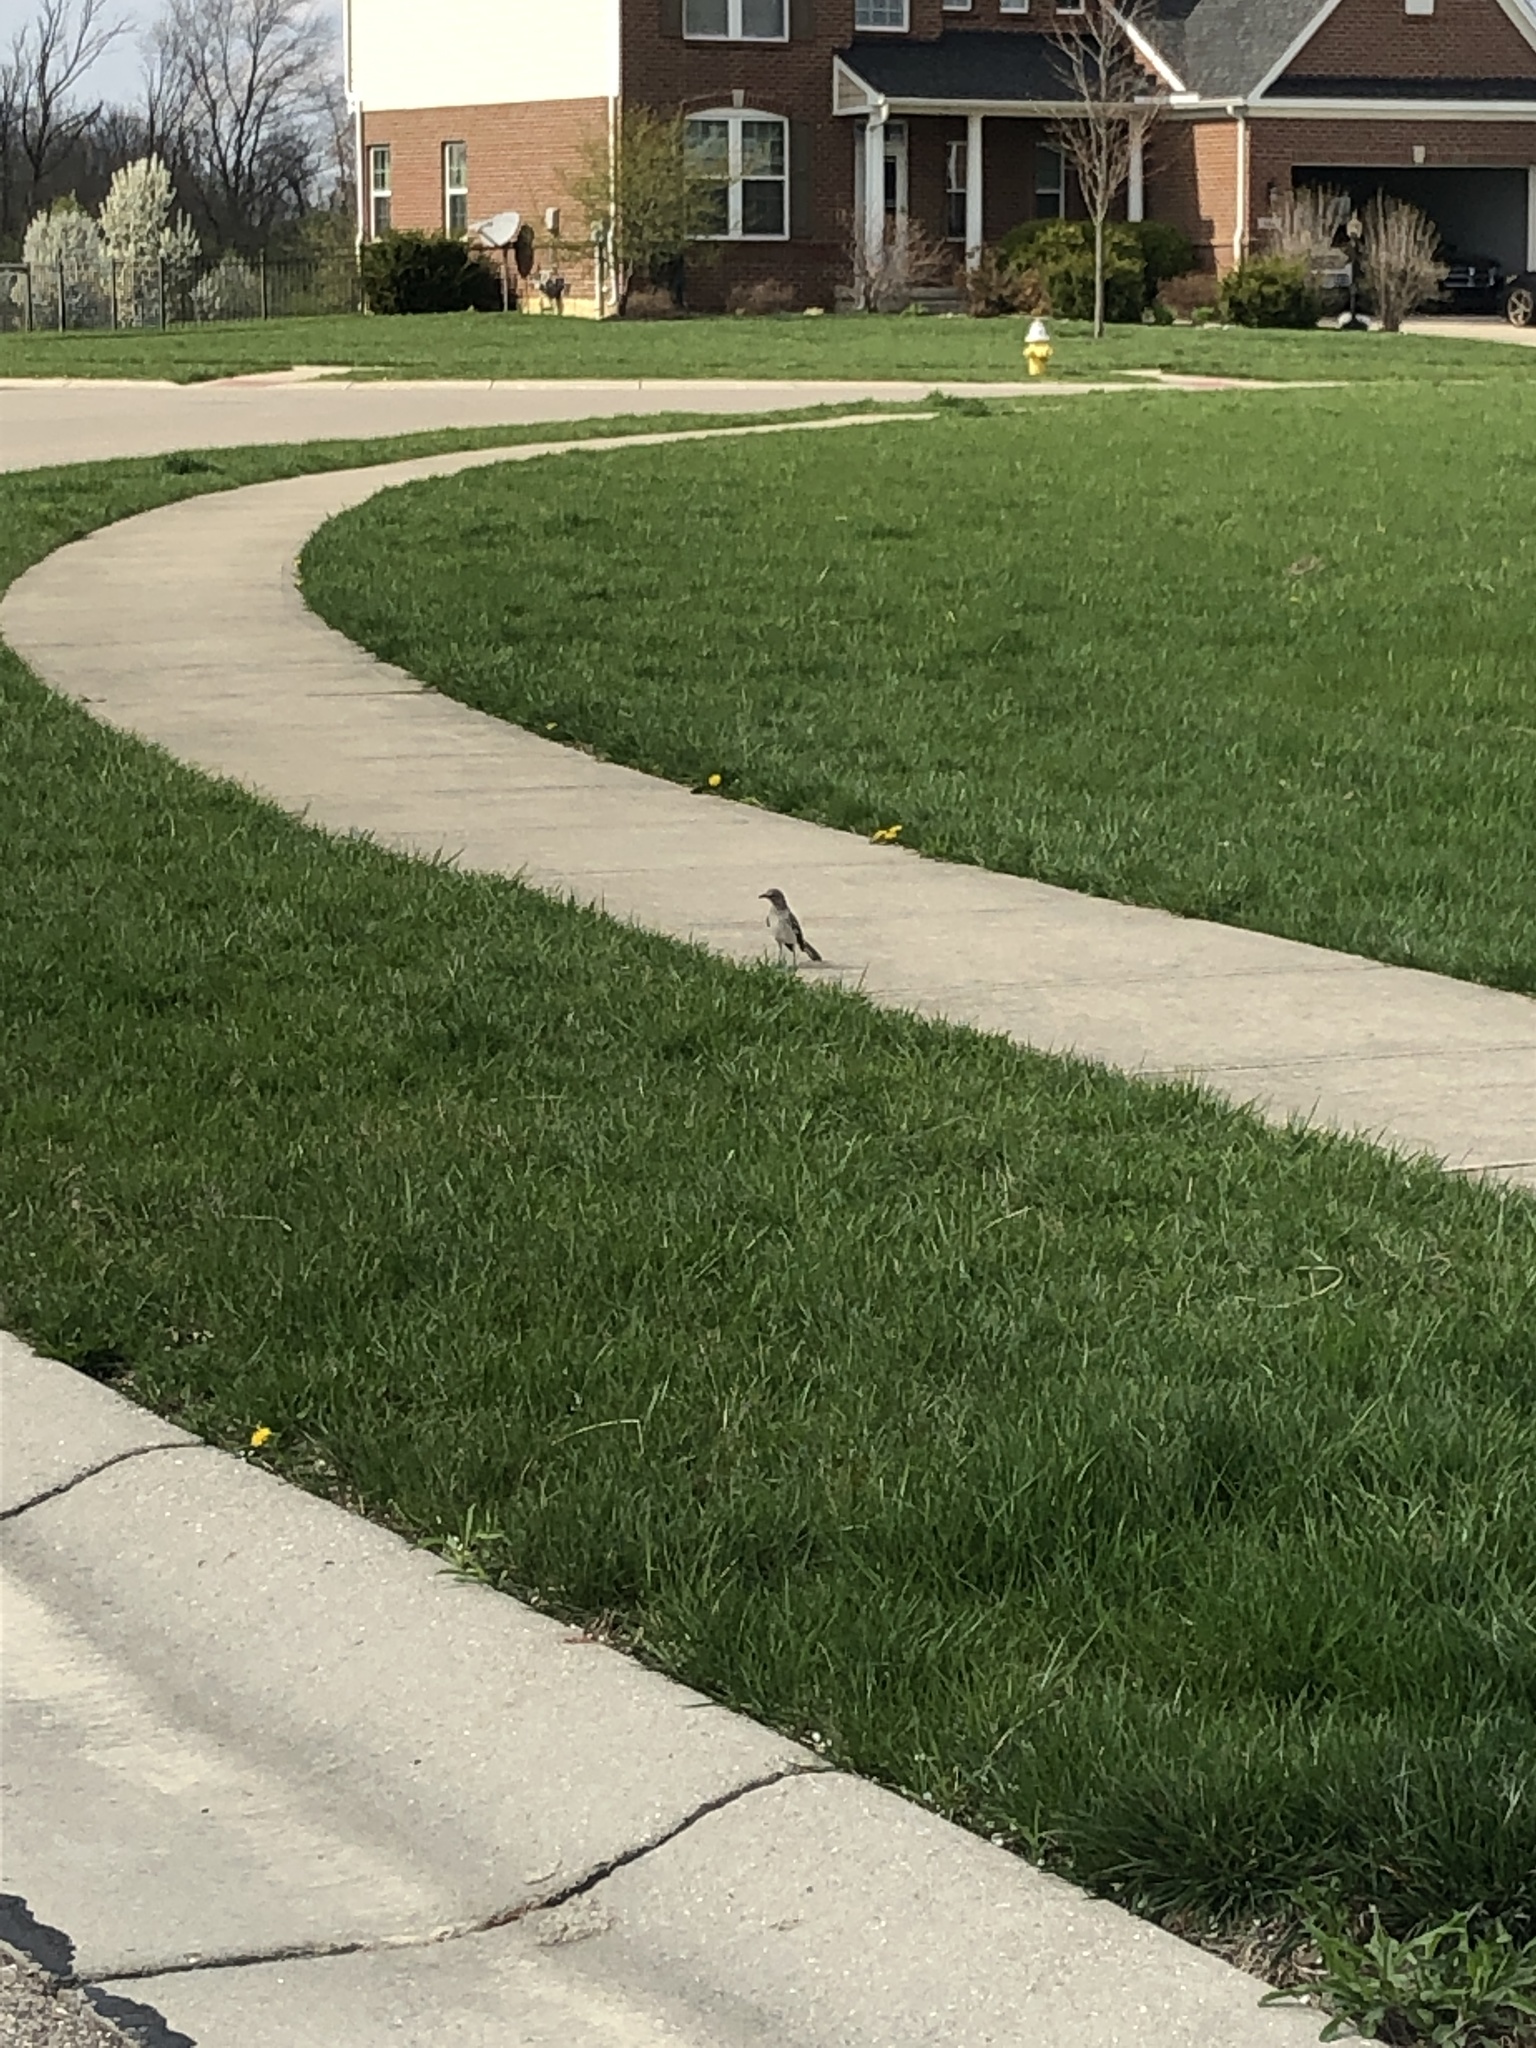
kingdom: Animalia
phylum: Chordata
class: Aves
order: Passeriformes
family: Mimidae
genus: Mimus
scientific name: Mimus polyglottos
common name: Northern mockingbird
